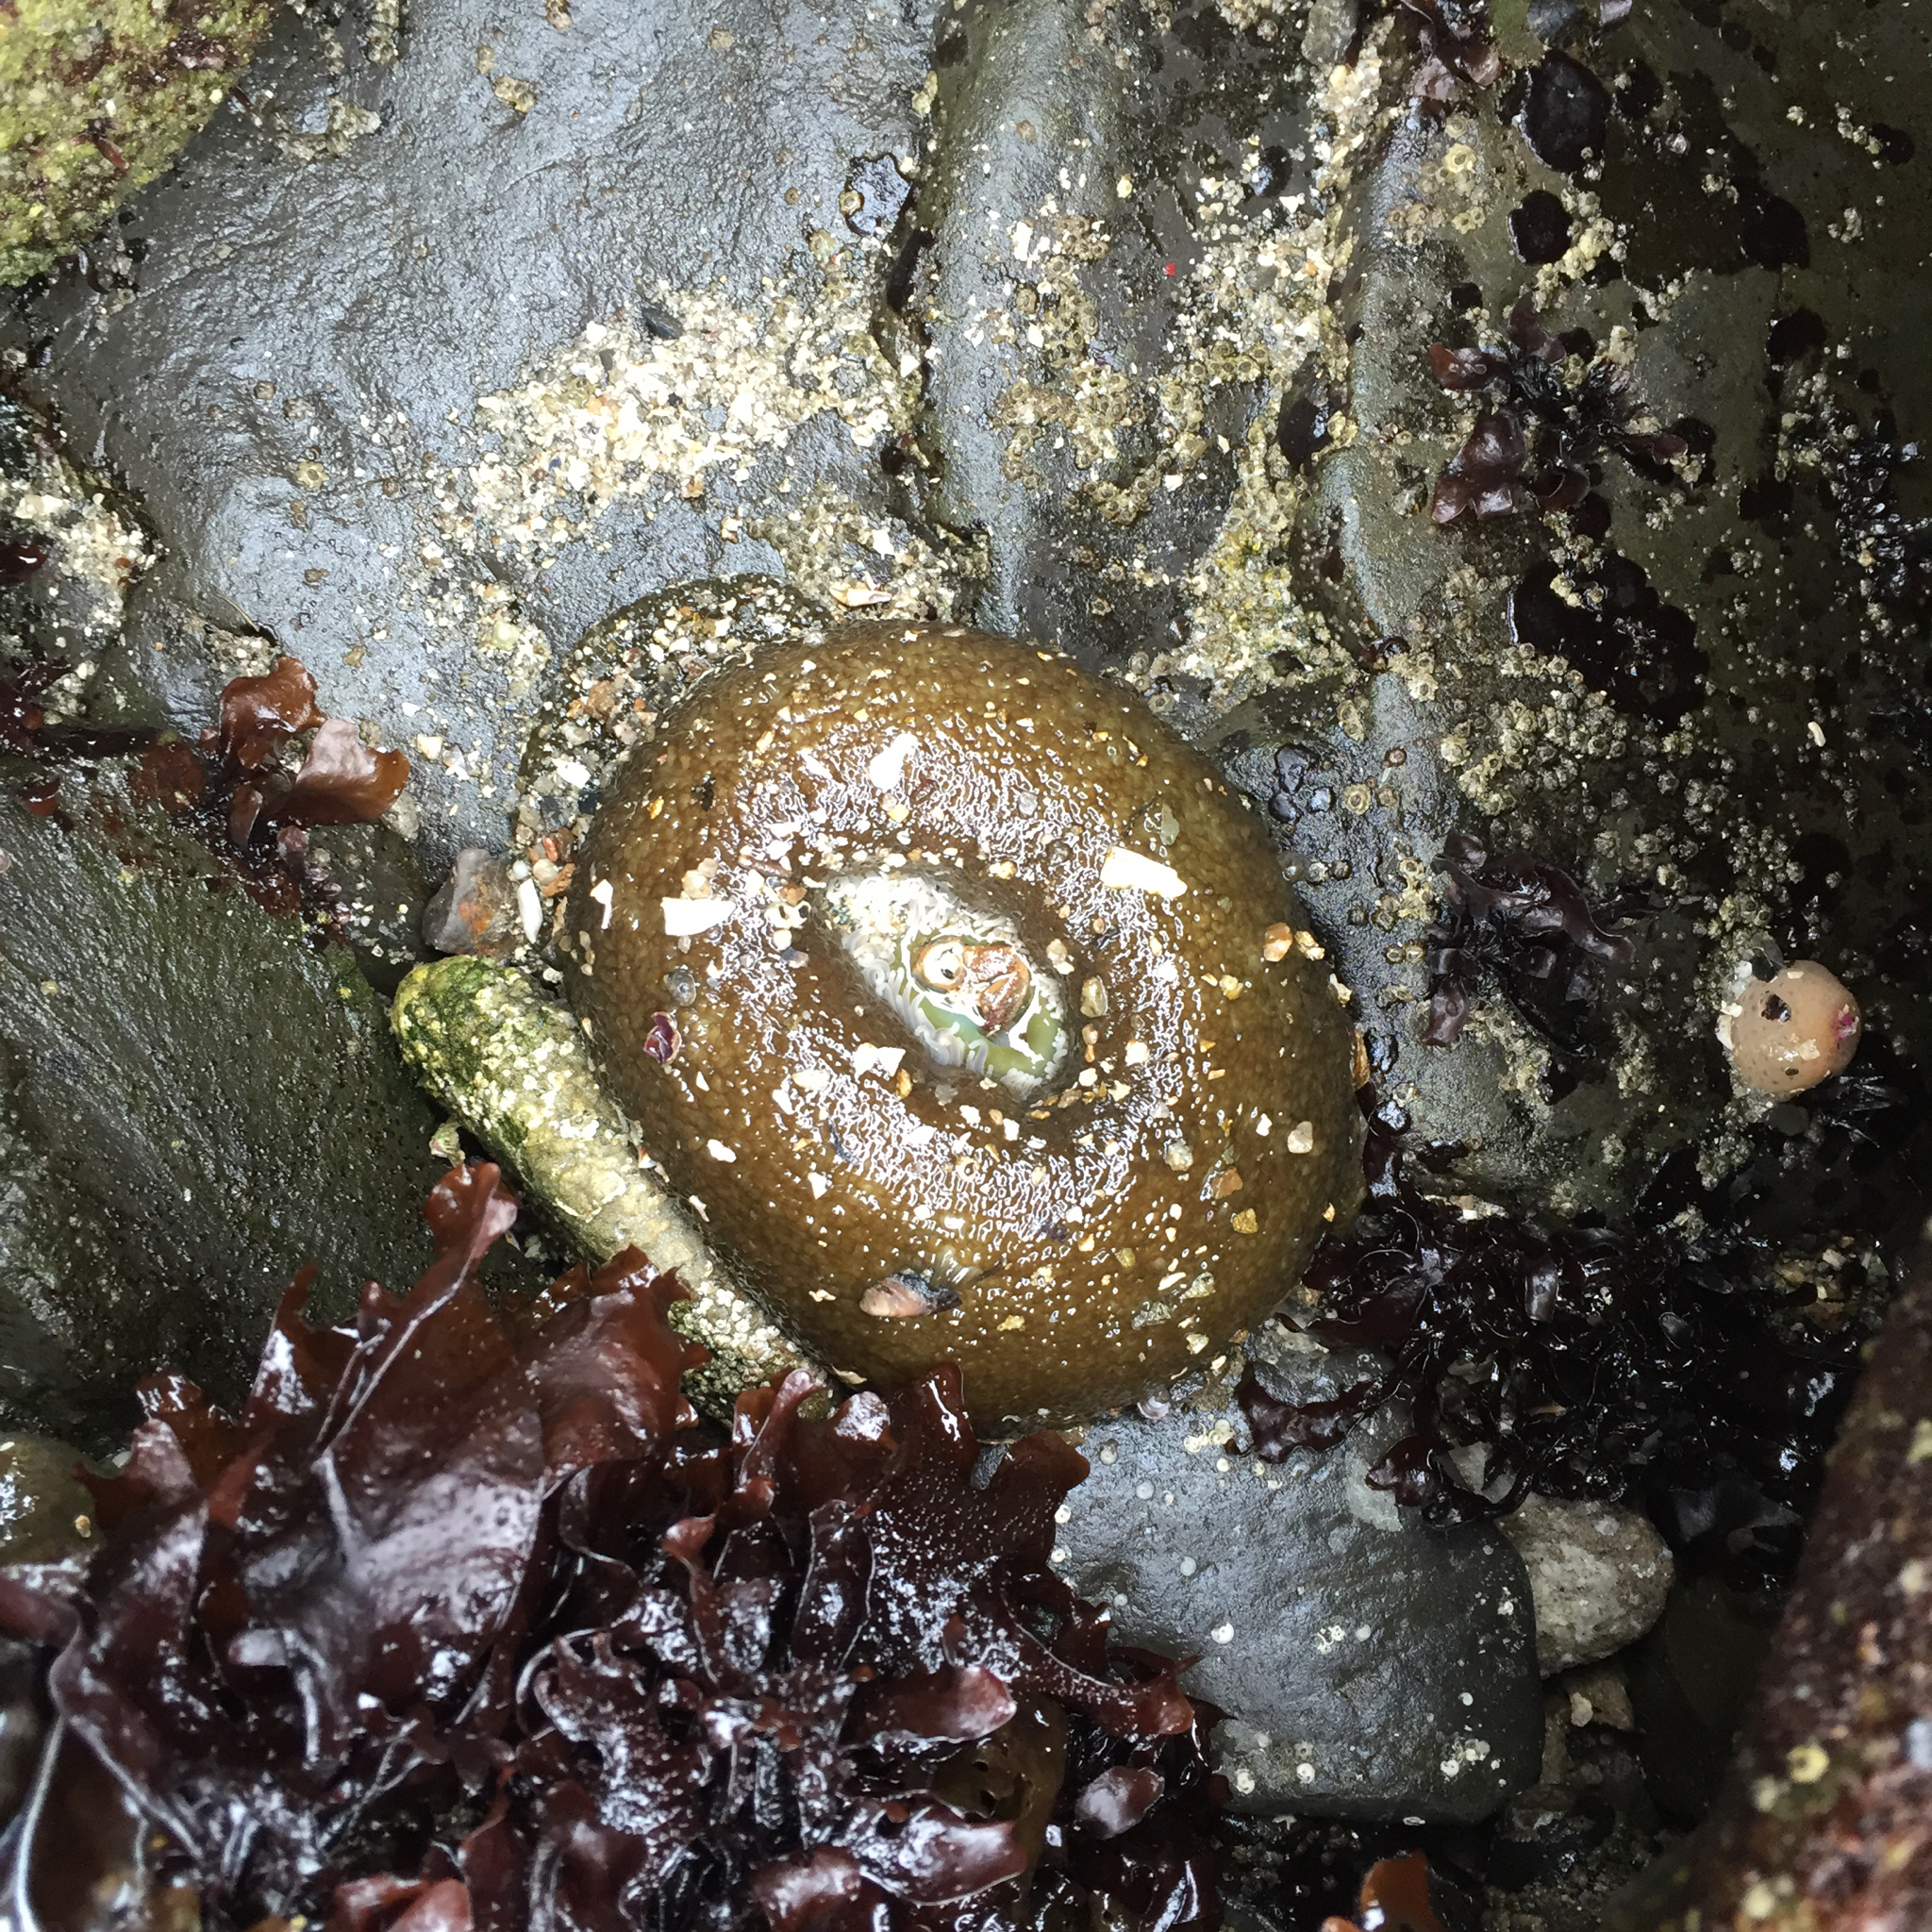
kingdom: Animalia
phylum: Cnidaria
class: Anthozoa
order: Actiniaria
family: Actiniidae
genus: Anthopleura
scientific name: Anthopleura xanthogrammica
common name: Giant green anemone
